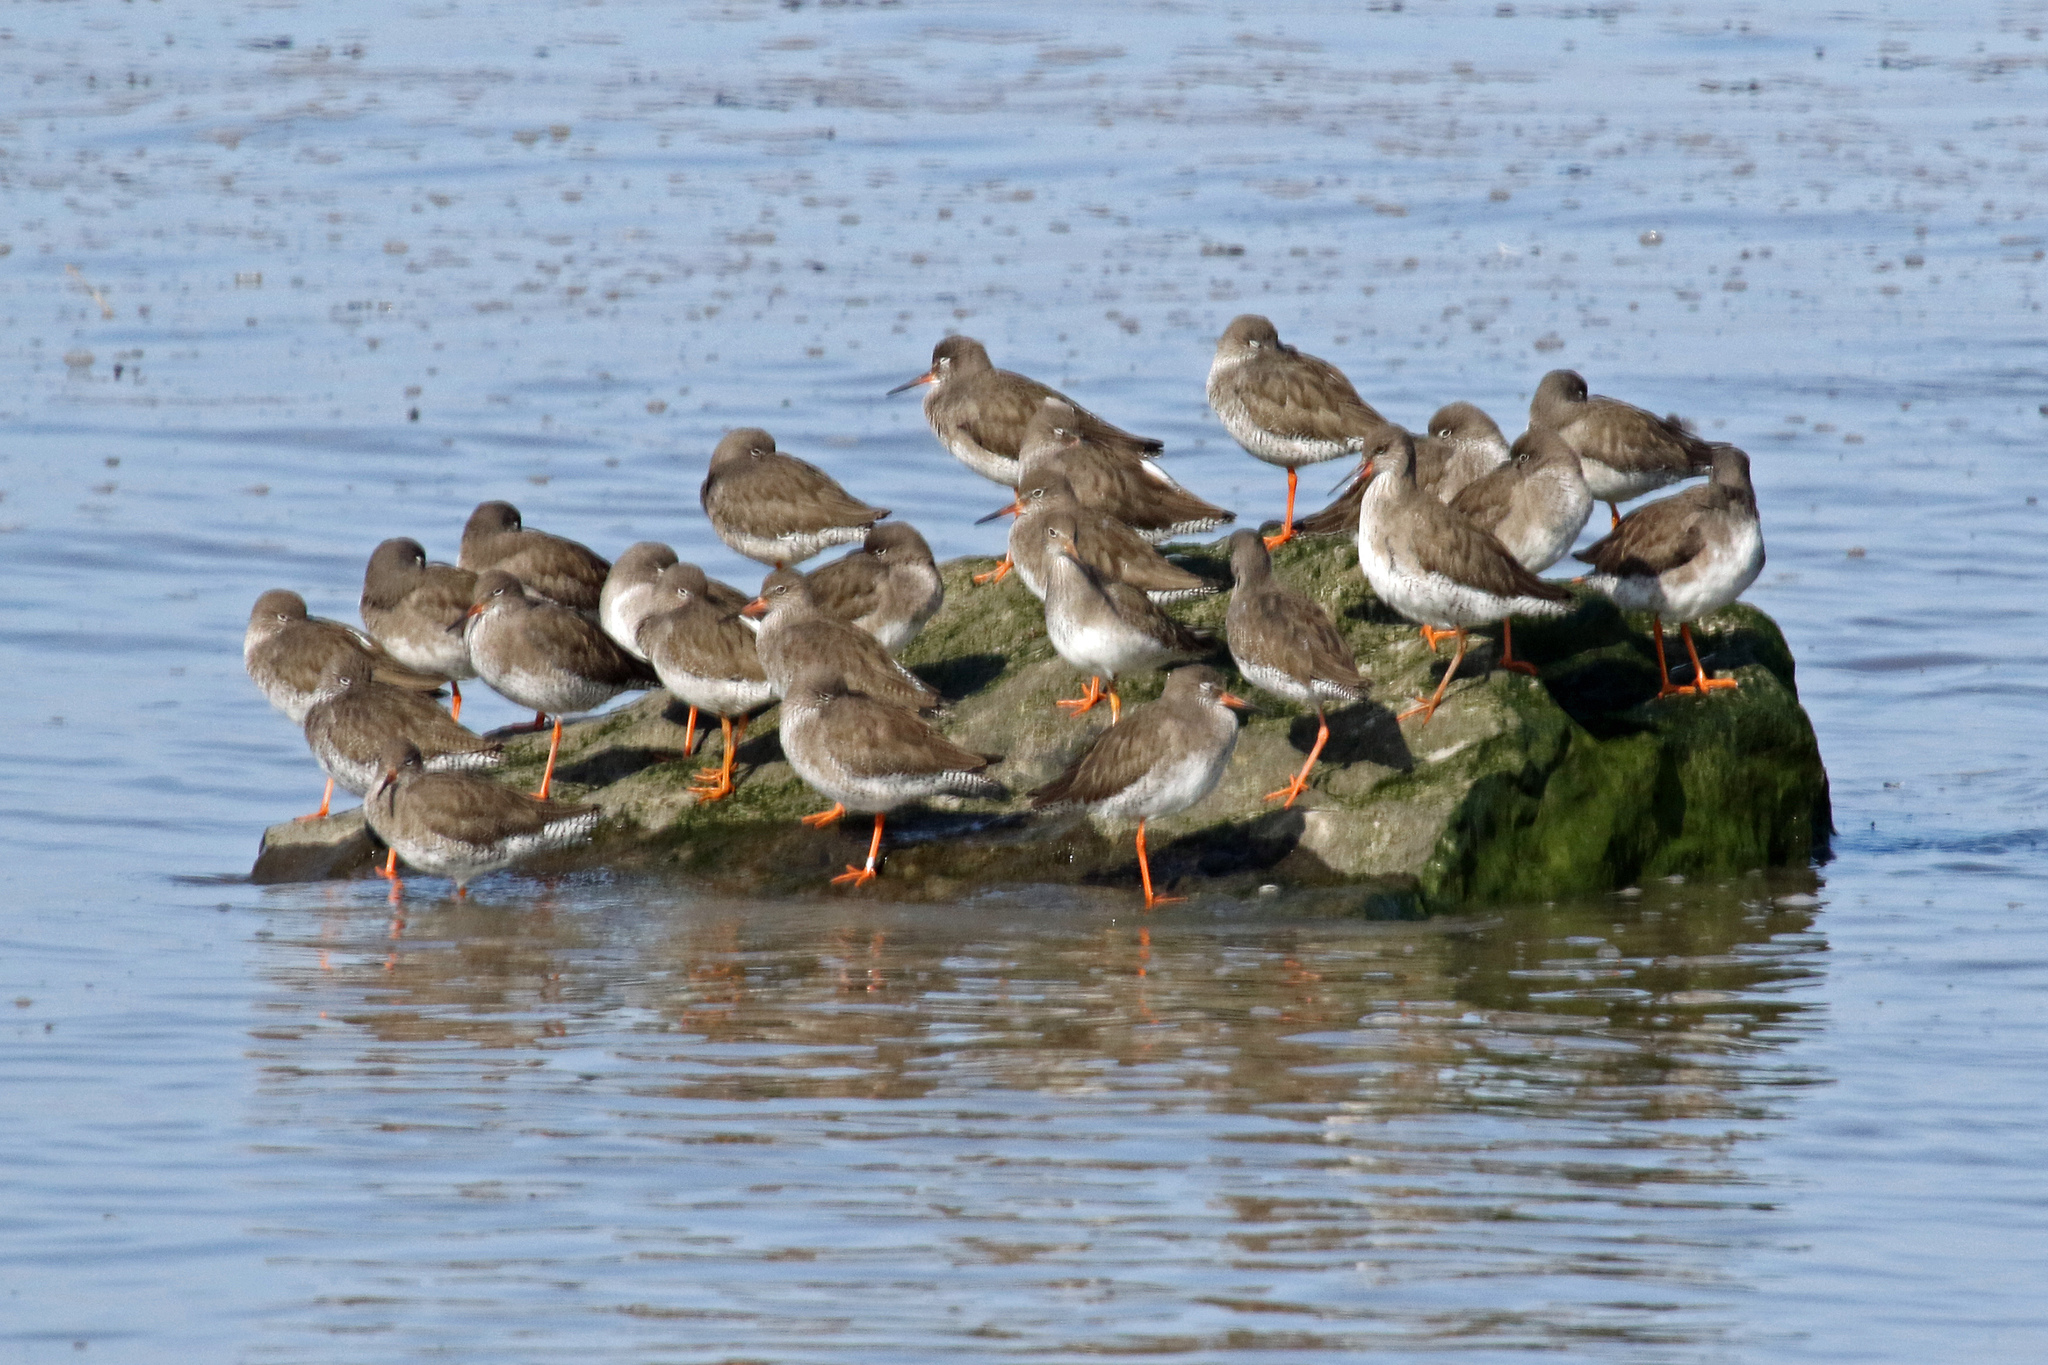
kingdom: Animalia
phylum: Chordata
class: Aves
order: Charadriiformes
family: Scolopacidae
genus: Tringa
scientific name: Tringa totanus
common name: Common redshank
